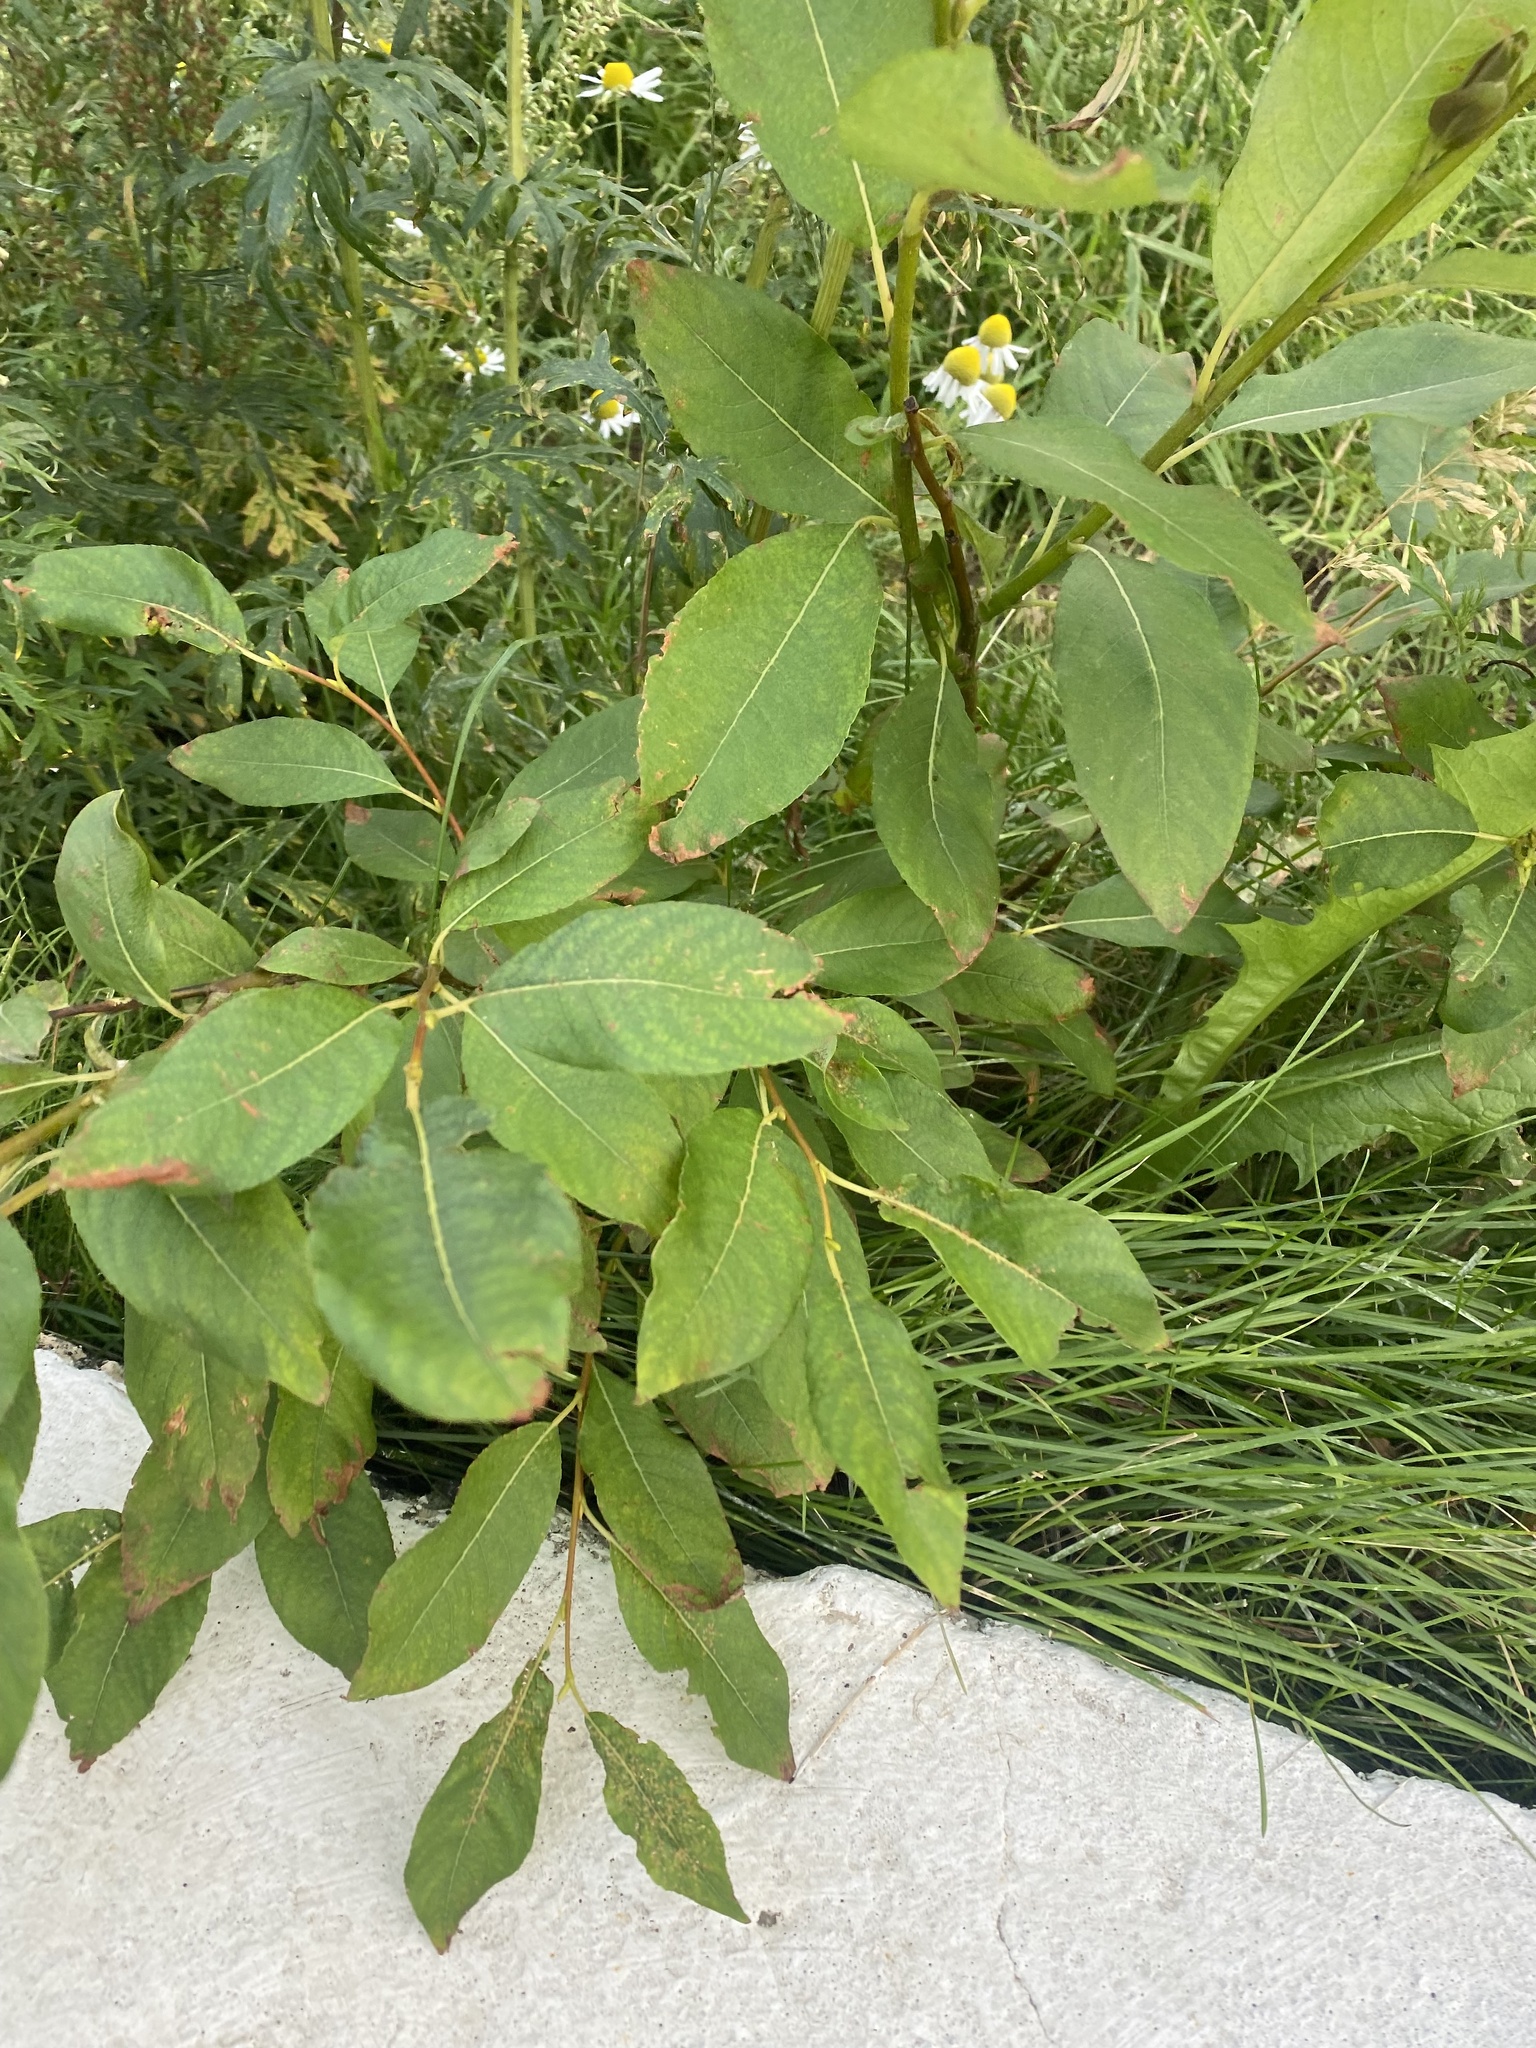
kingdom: Plantae
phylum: Tracheophyta
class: Magnoliopsida
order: Malpighiales
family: Salicaceae
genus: Salix
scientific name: Salix hastata
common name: Halberd willow
